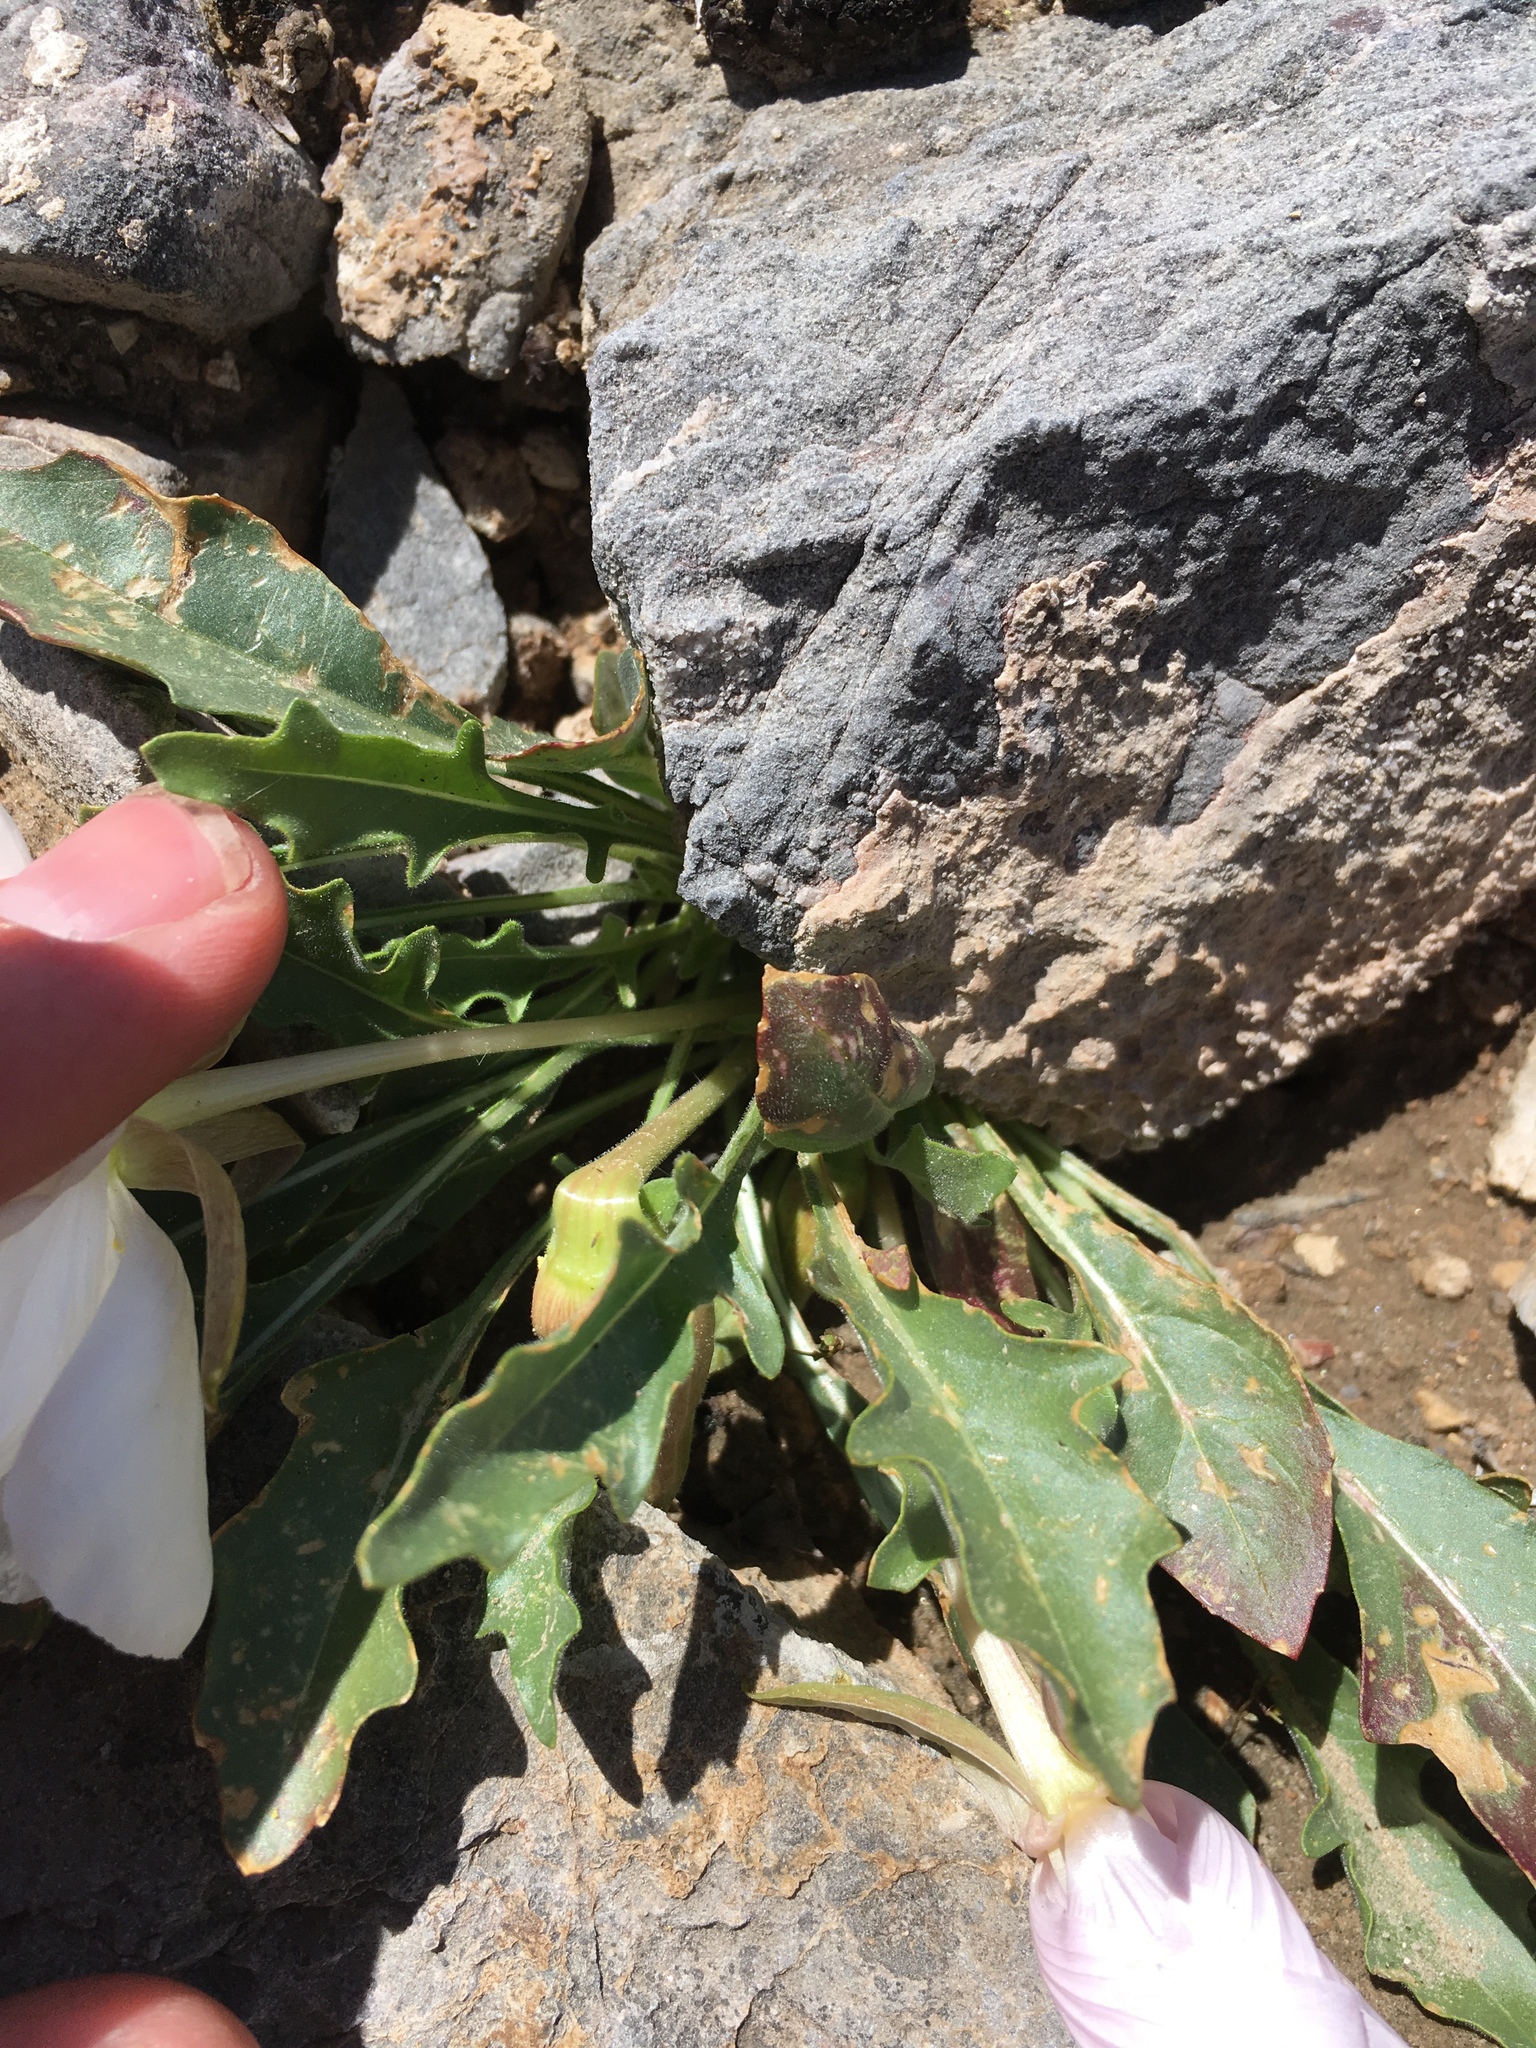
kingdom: Plantae
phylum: Tracheophyta
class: Magnoliopsida
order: Myrtales
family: Onagraceae
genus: Oenothera
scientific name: Oenothera cespitosa
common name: Tufted evening-primrose
